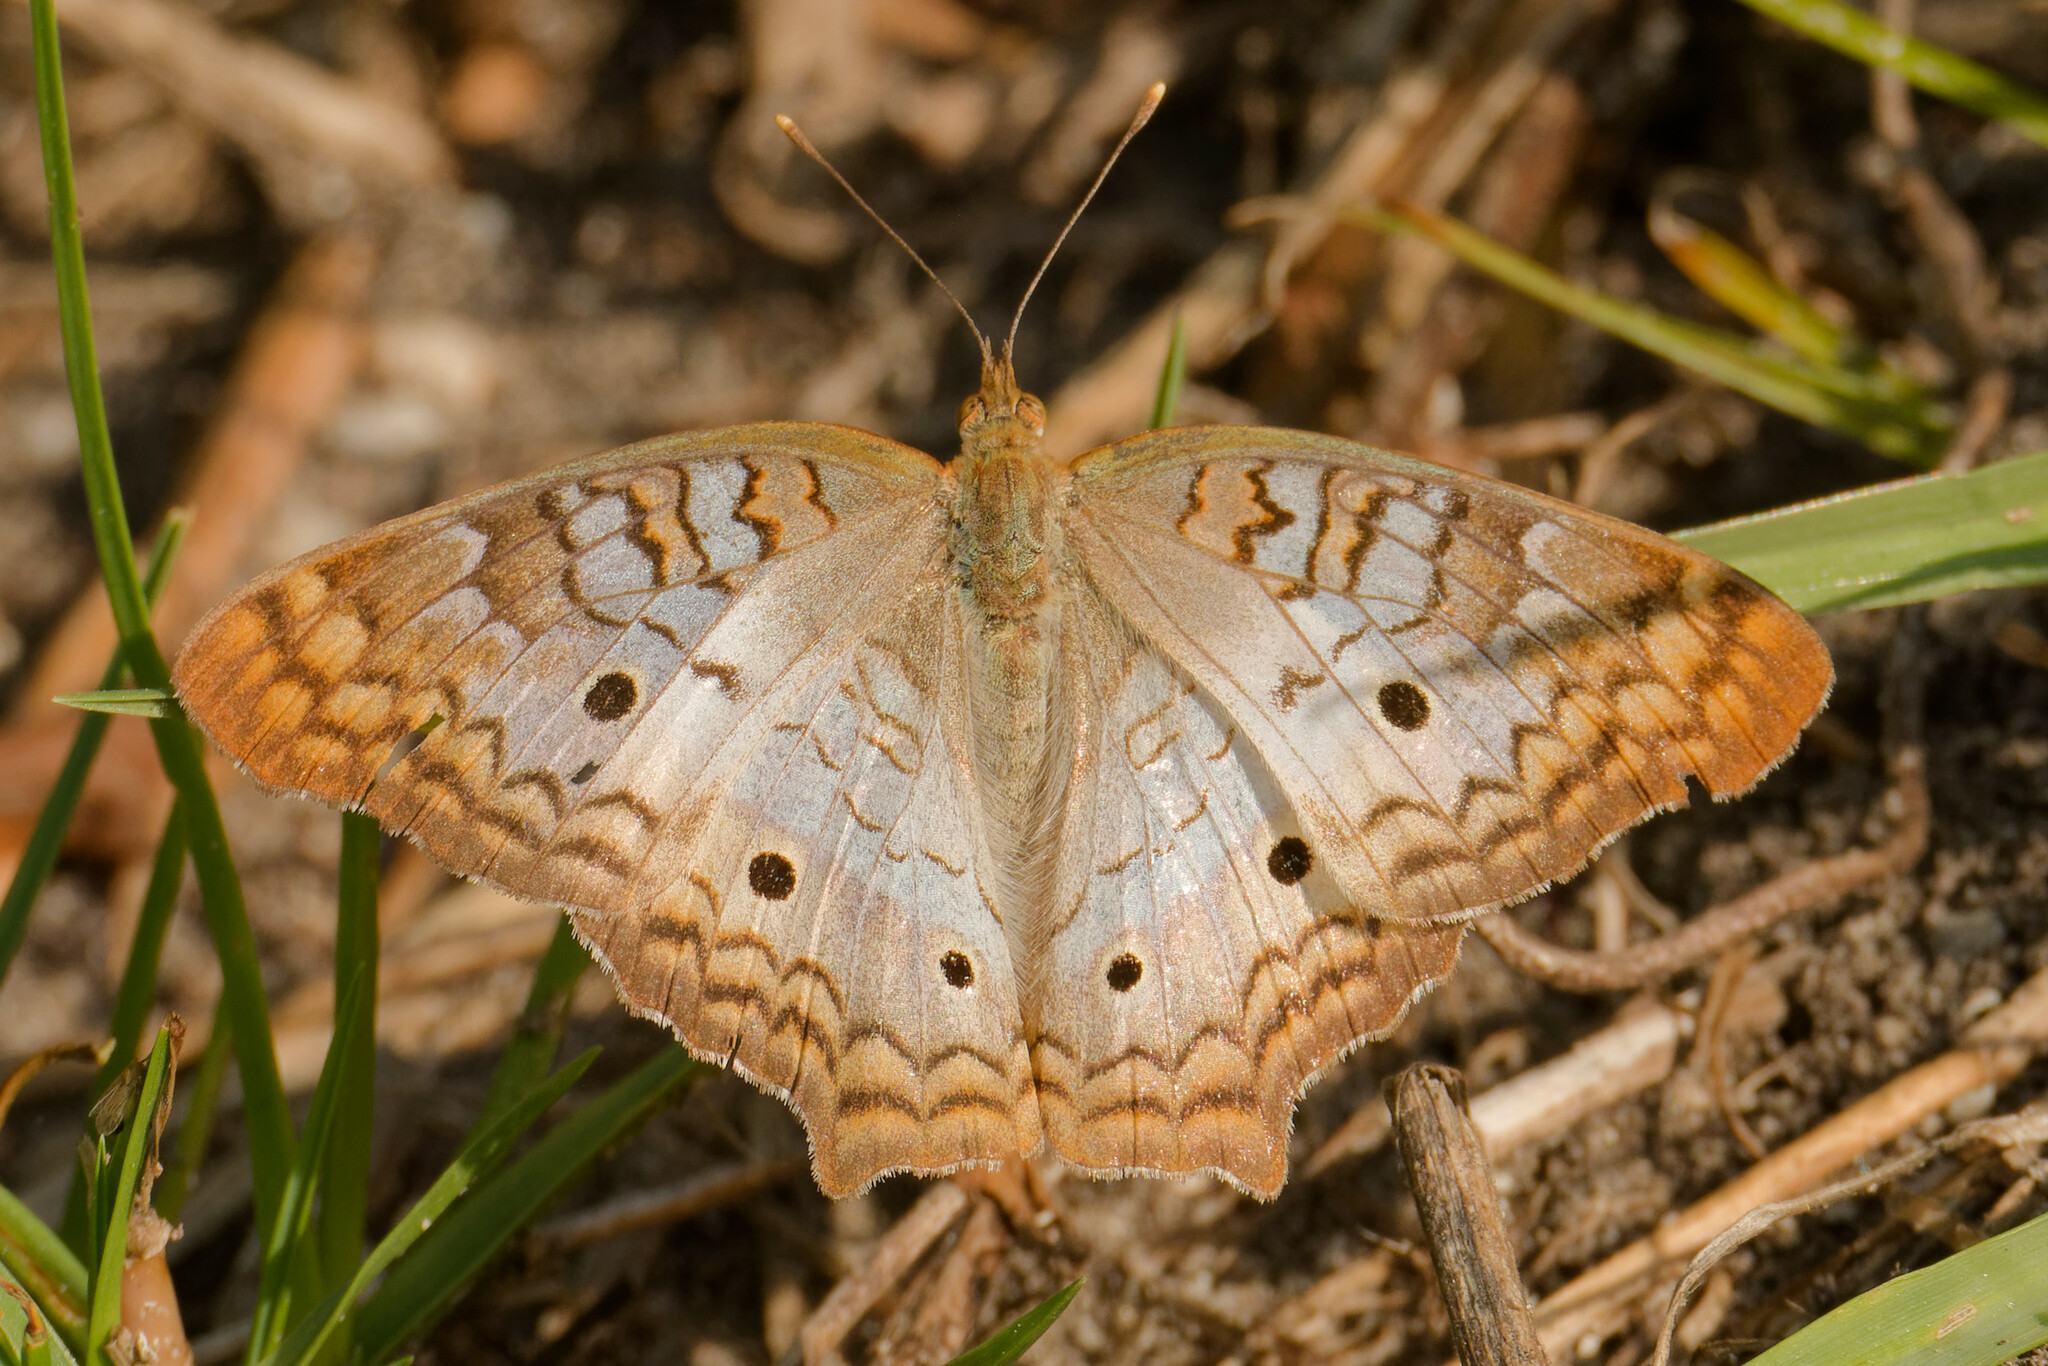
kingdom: Animalia
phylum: Arthropoda
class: Insecta
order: Lepidoptera
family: Nymphalidae
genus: Anartia
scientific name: Anartia jatrophae
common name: White peacock
